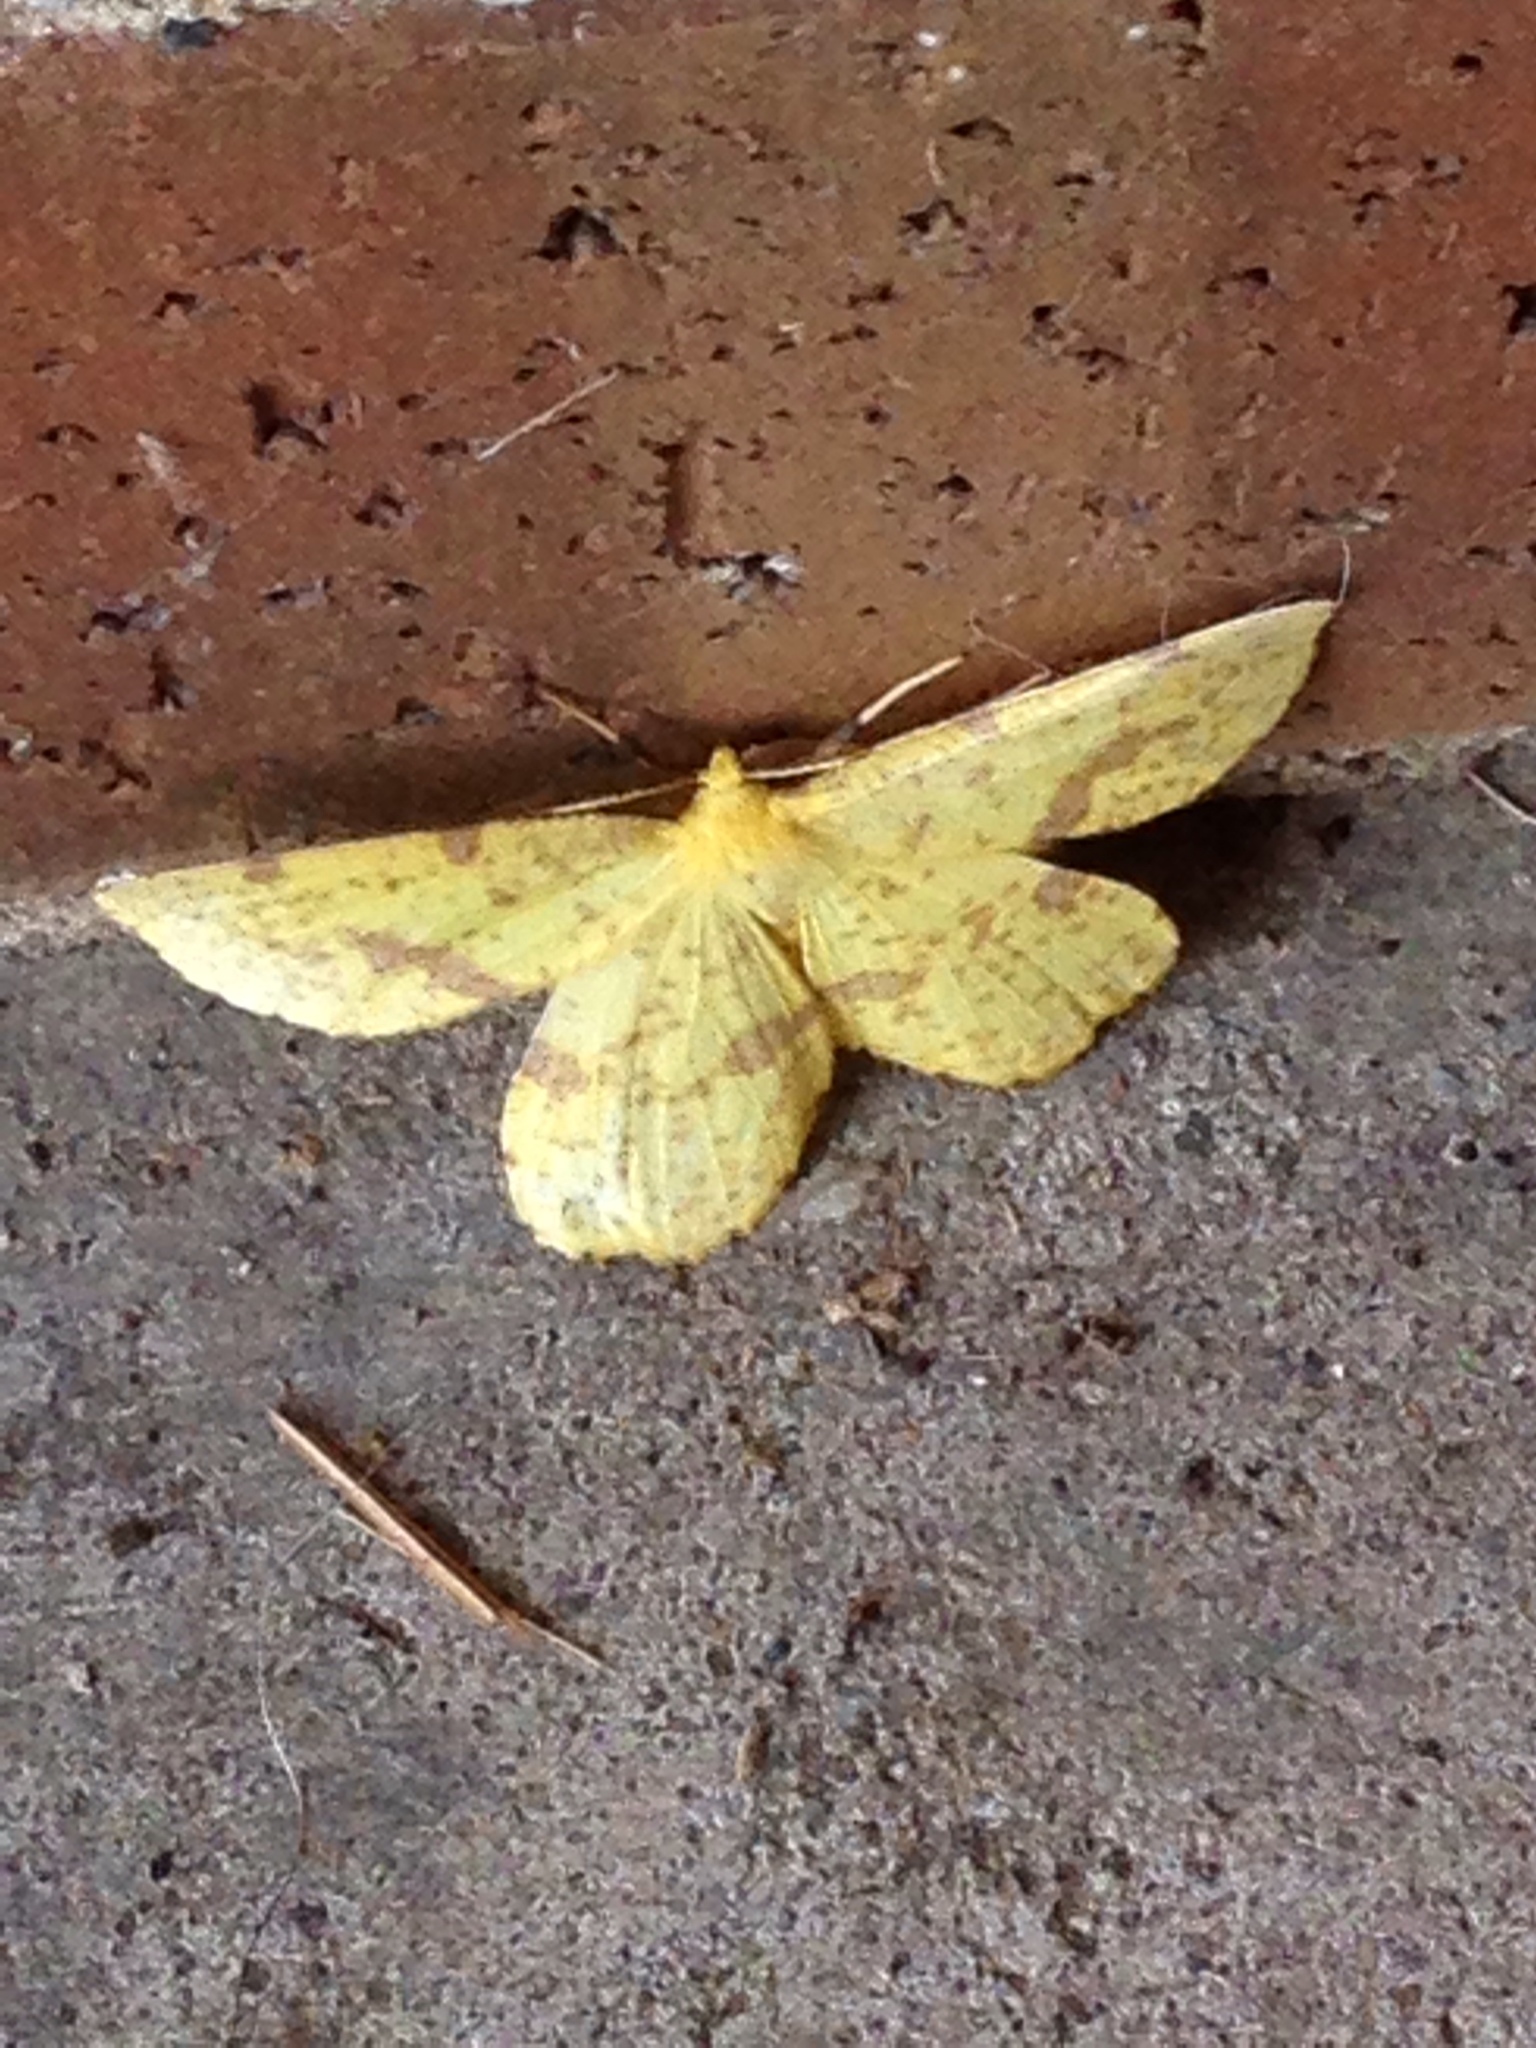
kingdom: Animalia
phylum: Arthropoda
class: Insecta
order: Lepidoptera
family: Geometridae
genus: Xanthotype
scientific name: Xanthotype
